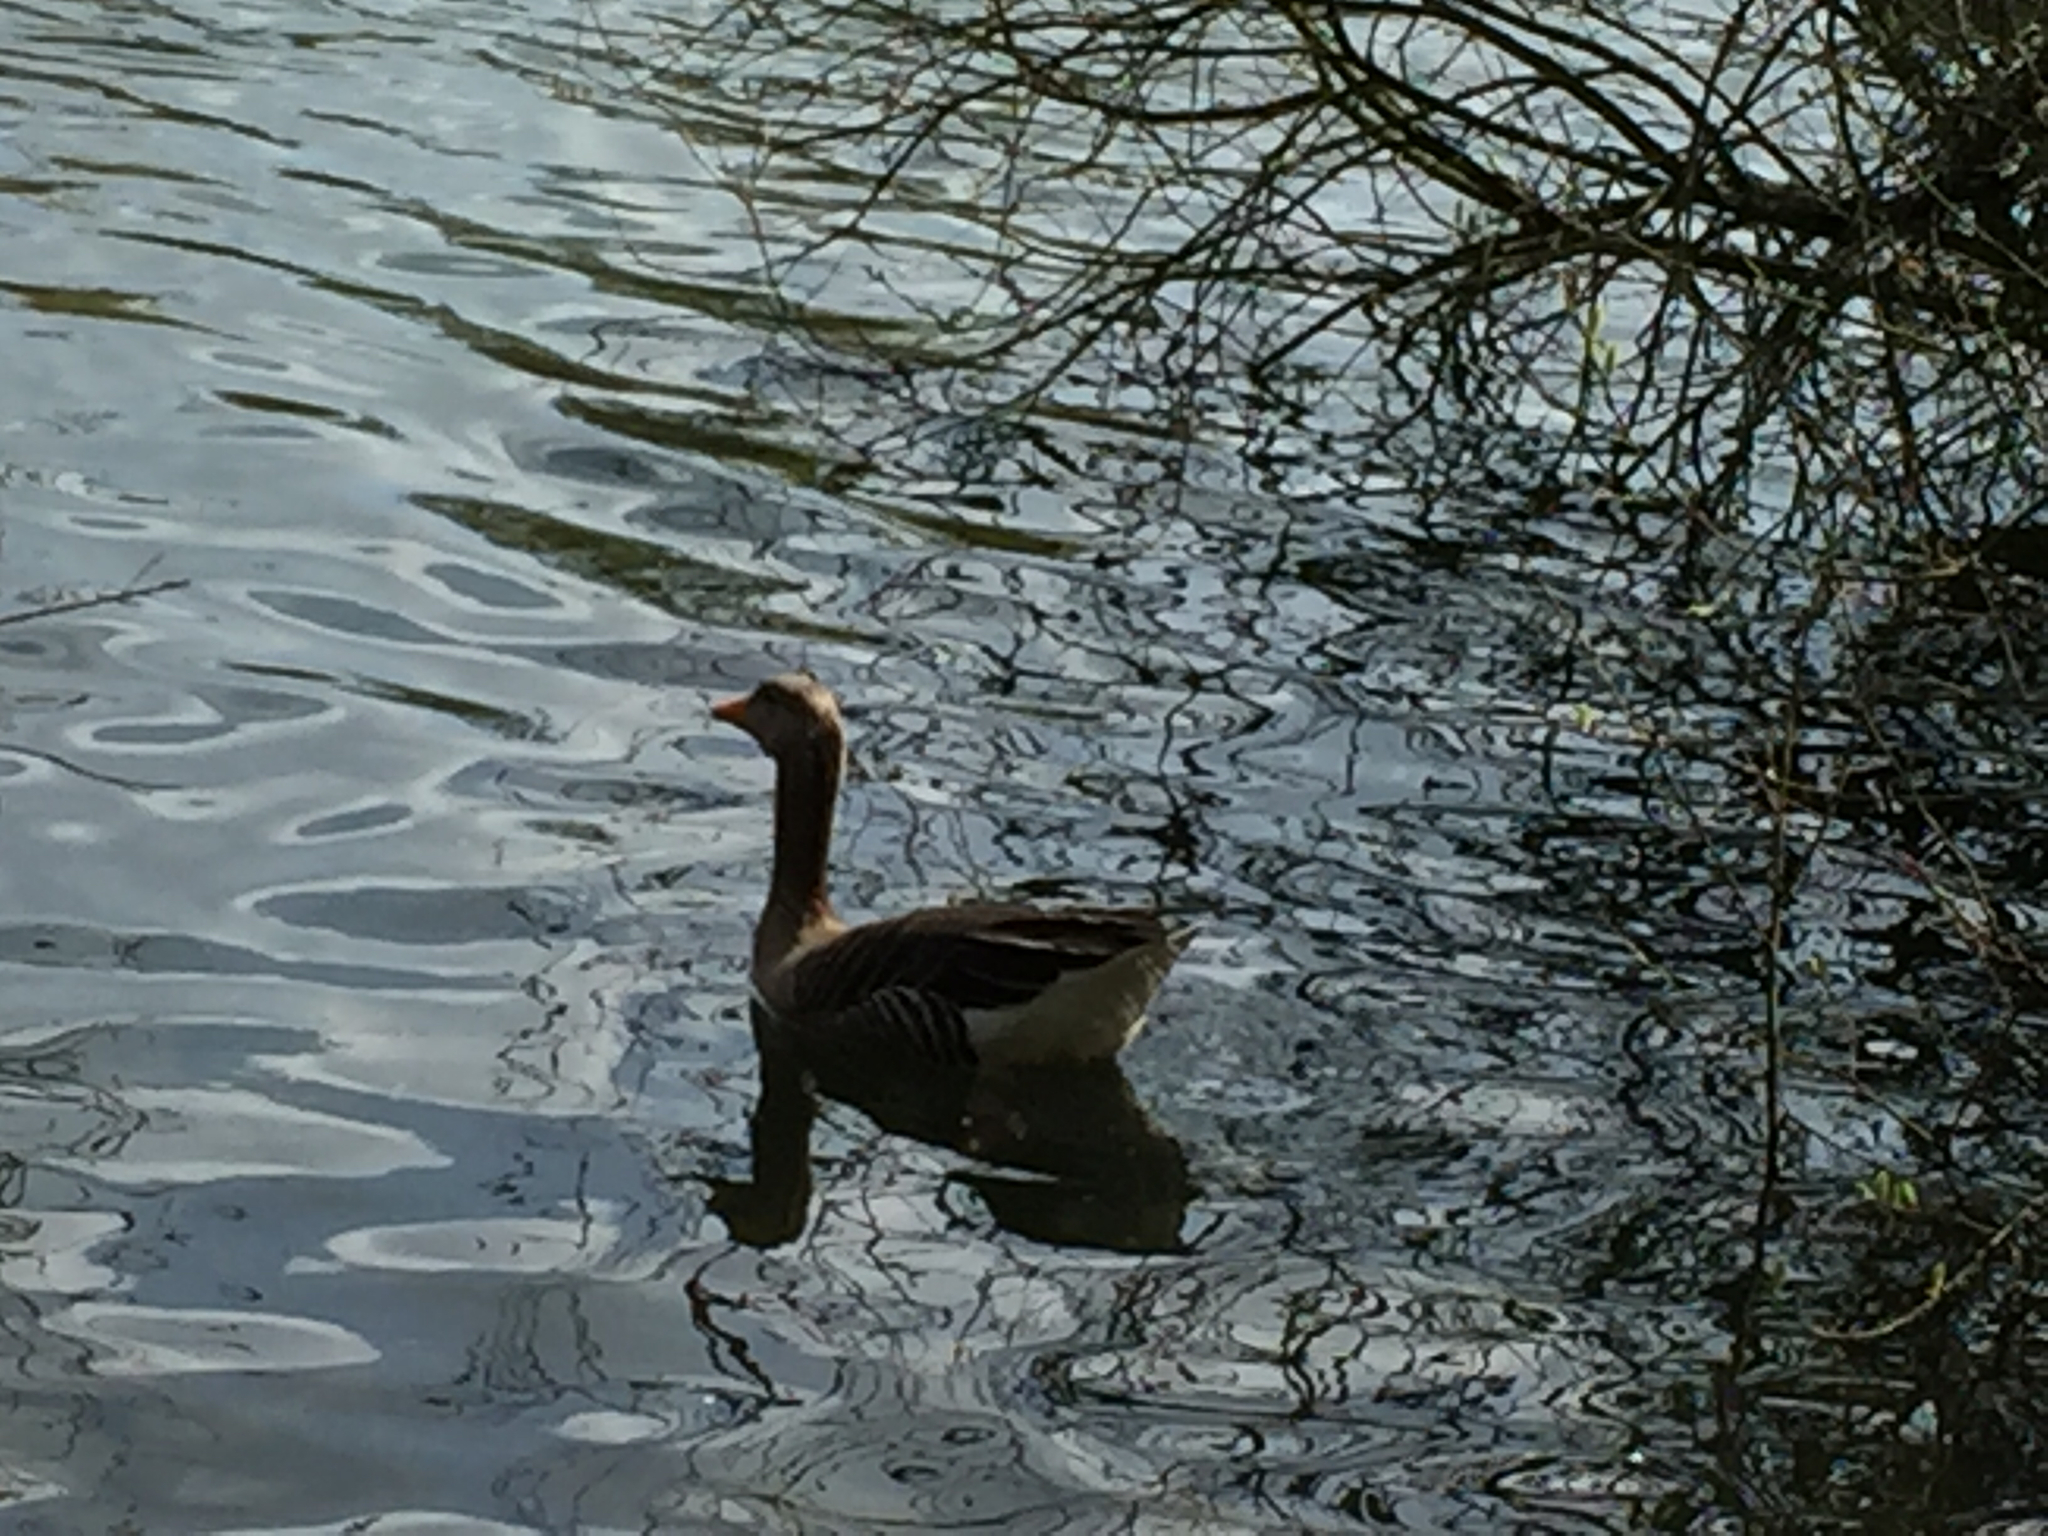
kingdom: Animalia
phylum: Chordata
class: Aves
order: Anseriformes
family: Anatidae
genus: Anser
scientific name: Anser anser
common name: Greylag goose
